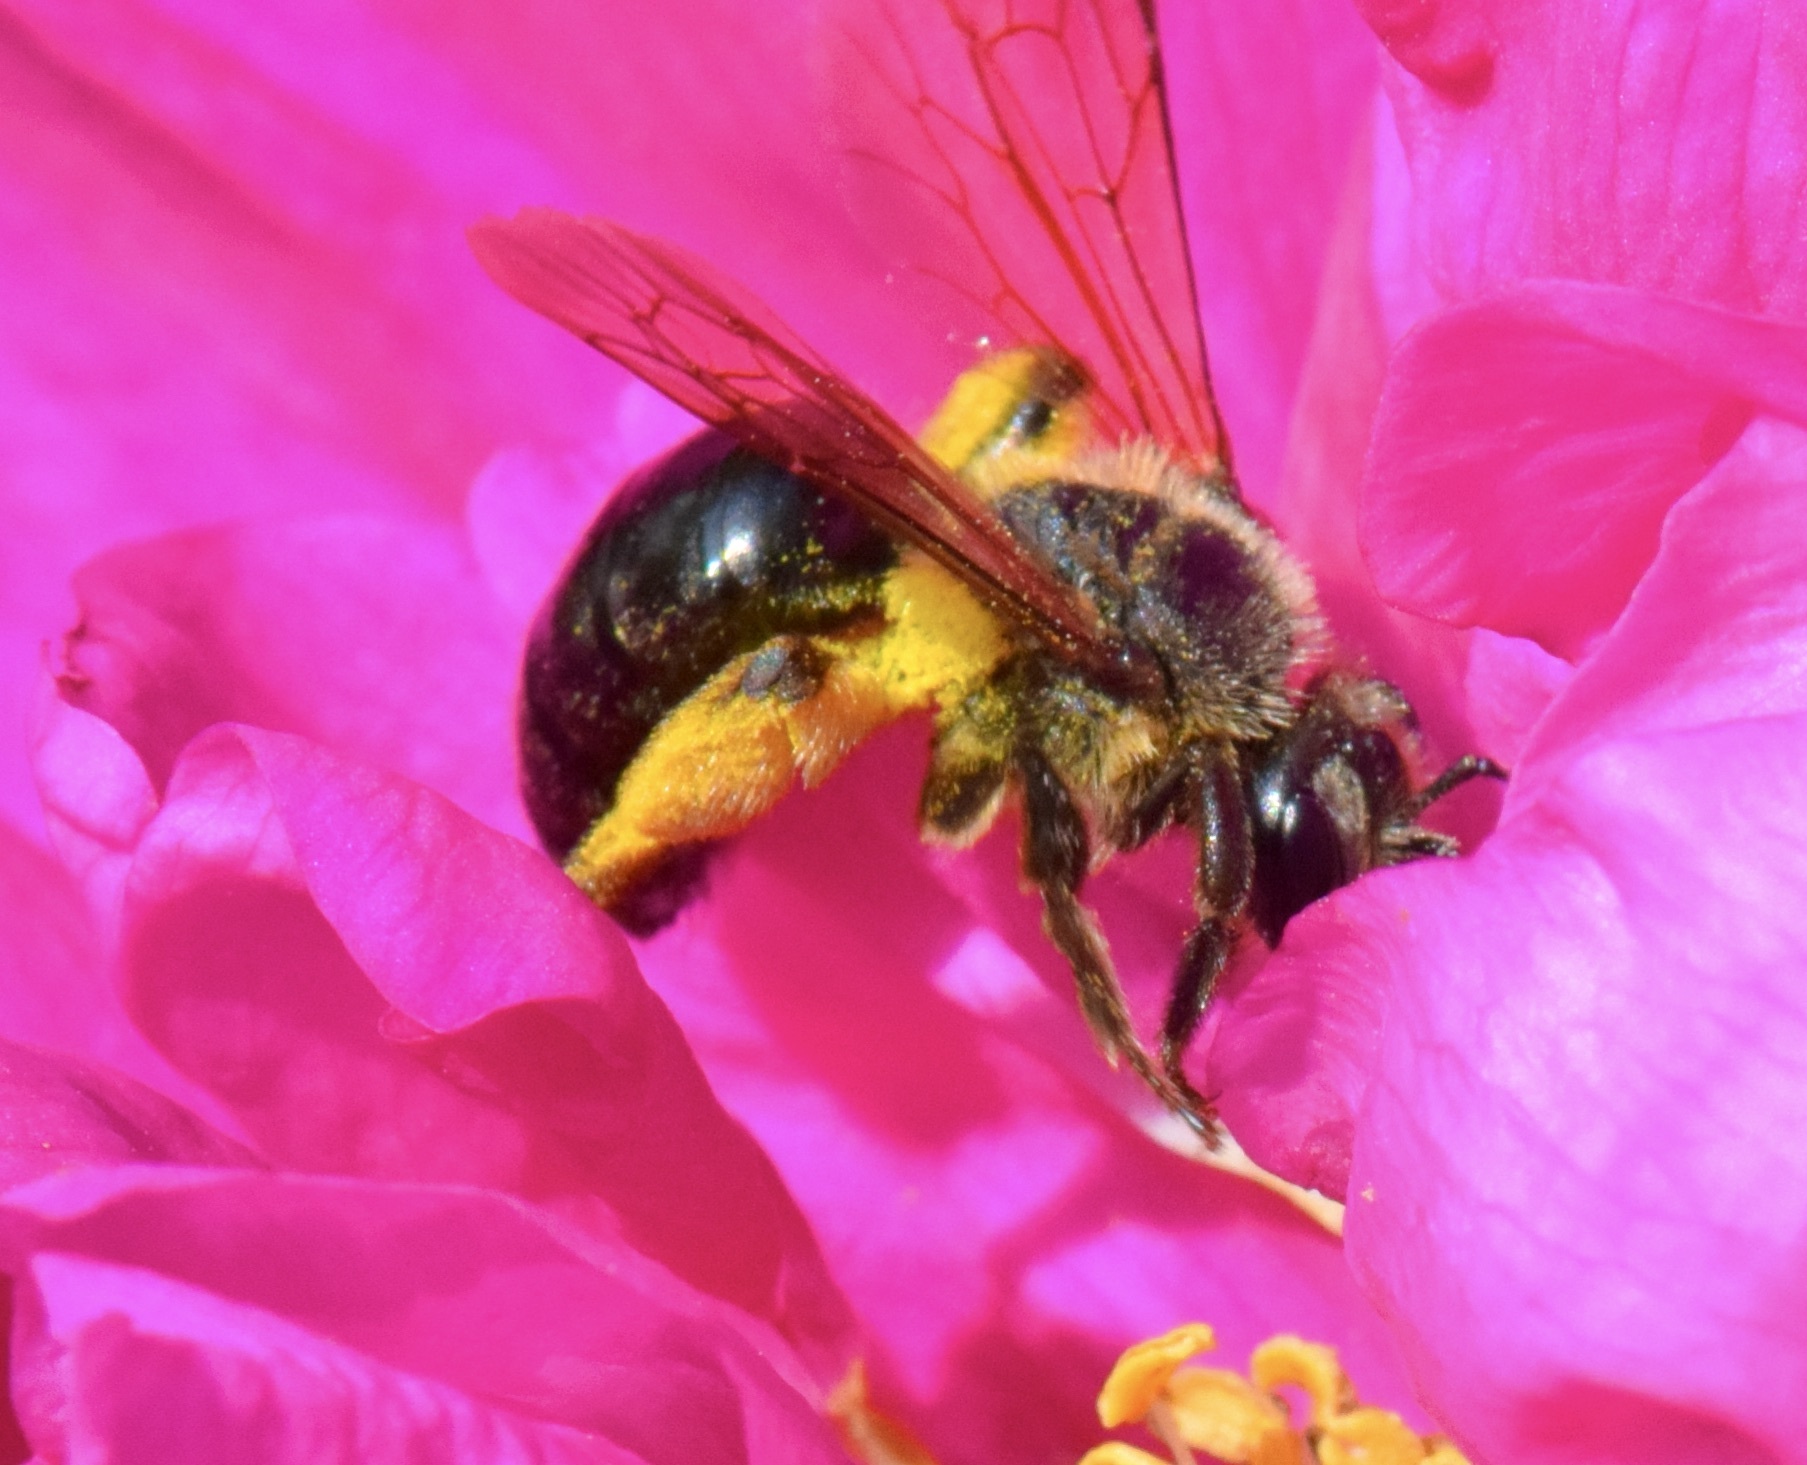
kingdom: Animalia
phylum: Arthropoda
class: Insecta
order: Hymenoptera
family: Andrenidae
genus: Andrena
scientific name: Andrena crataegi
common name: Hawthorn mining bee
